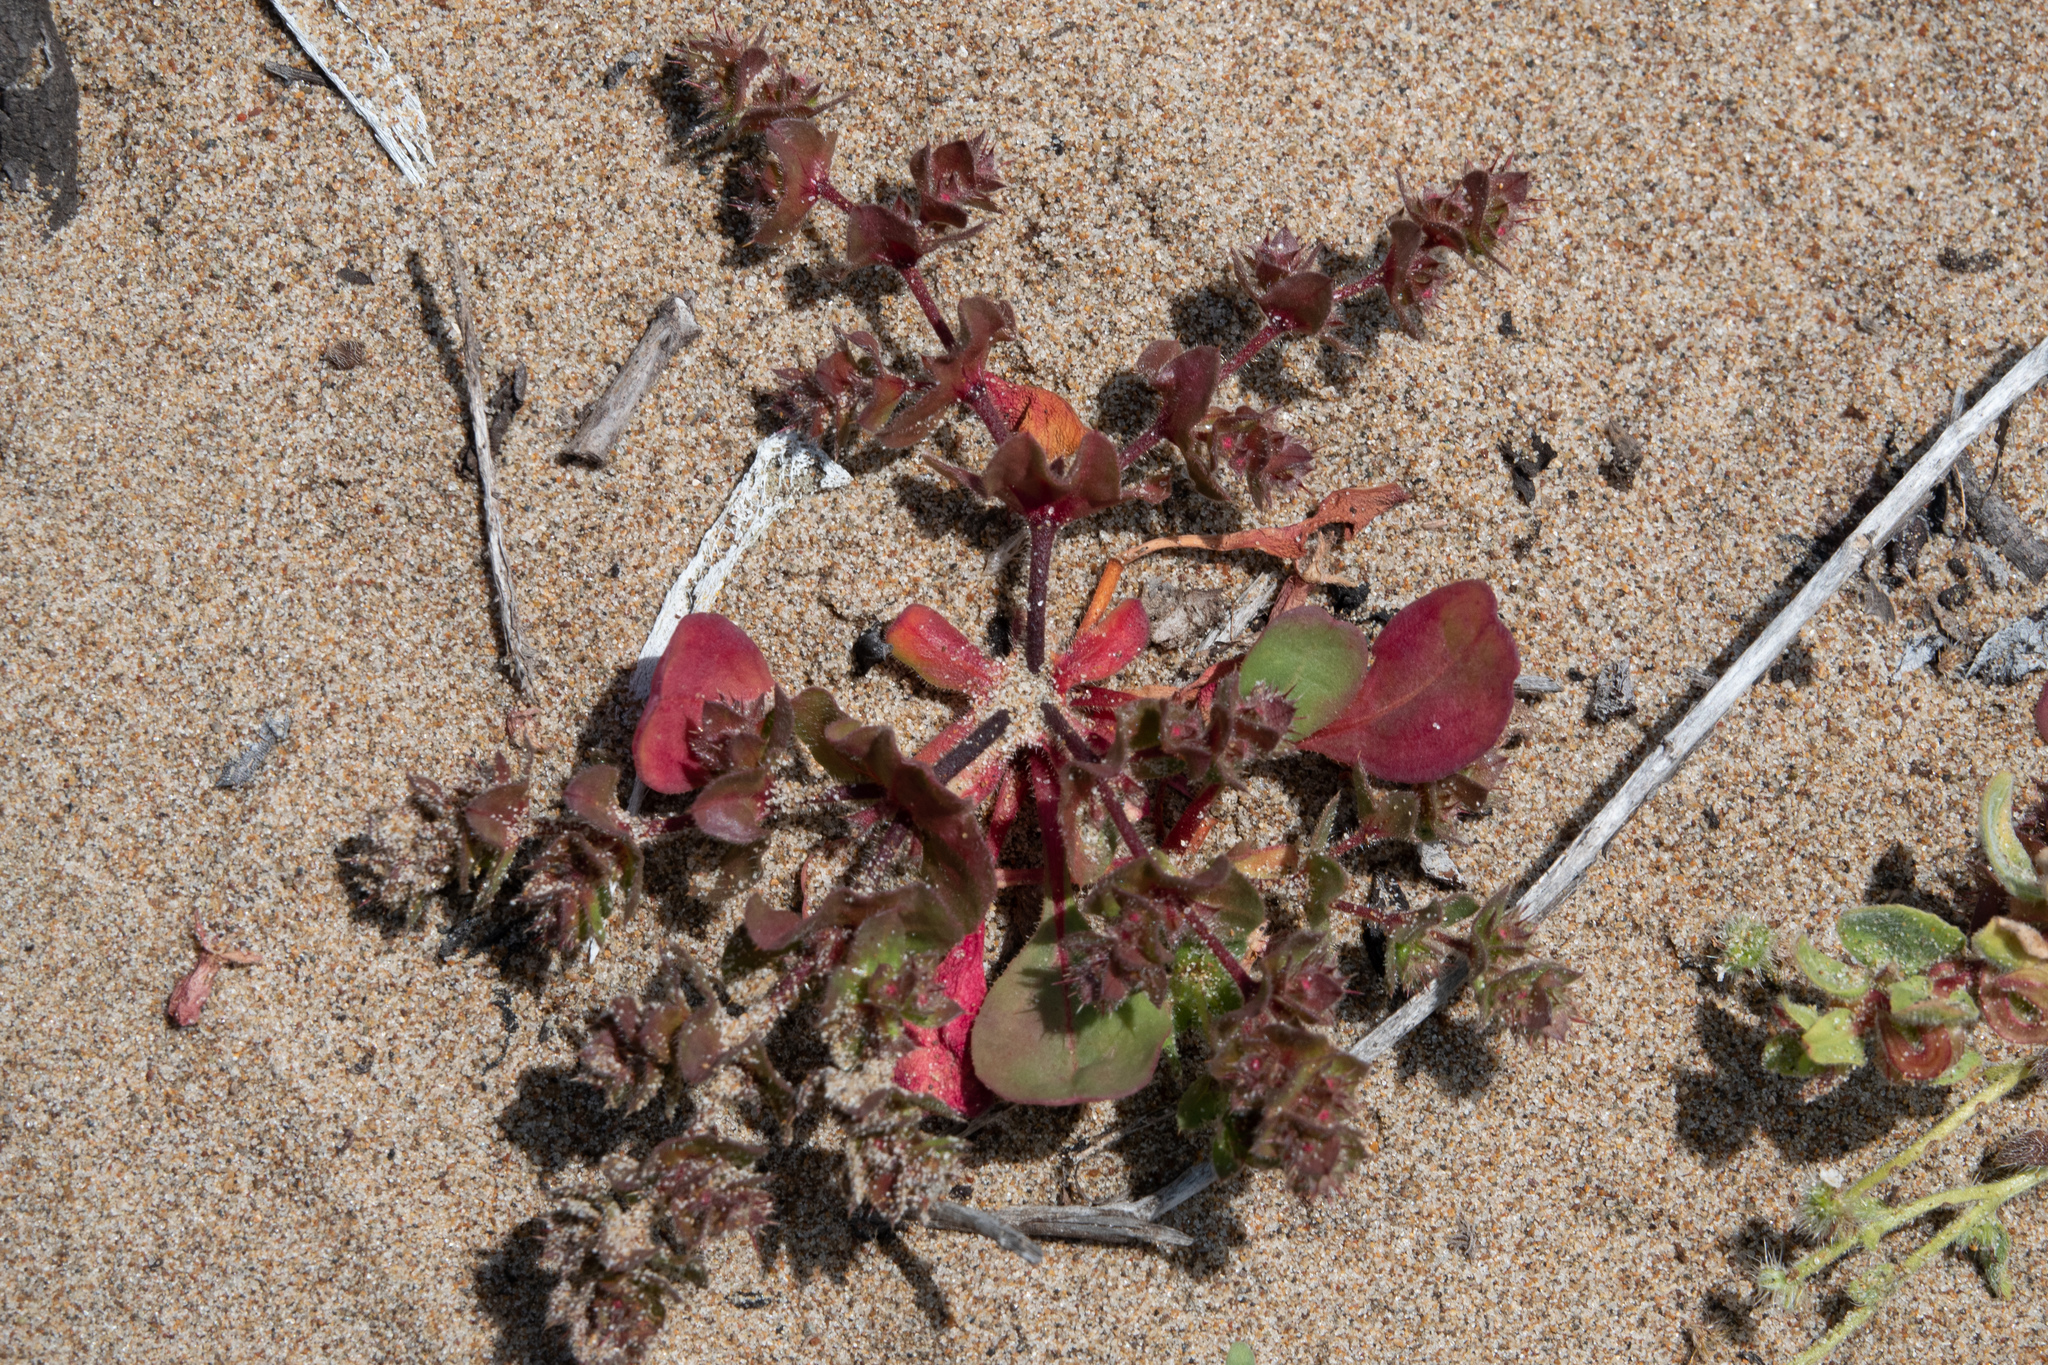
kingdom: Plantae
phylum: Tracheophyta
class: Magnoliopsida
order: Caryophyllales
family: Polygonaceae
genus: Mucronea
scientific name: Mucronea californica
